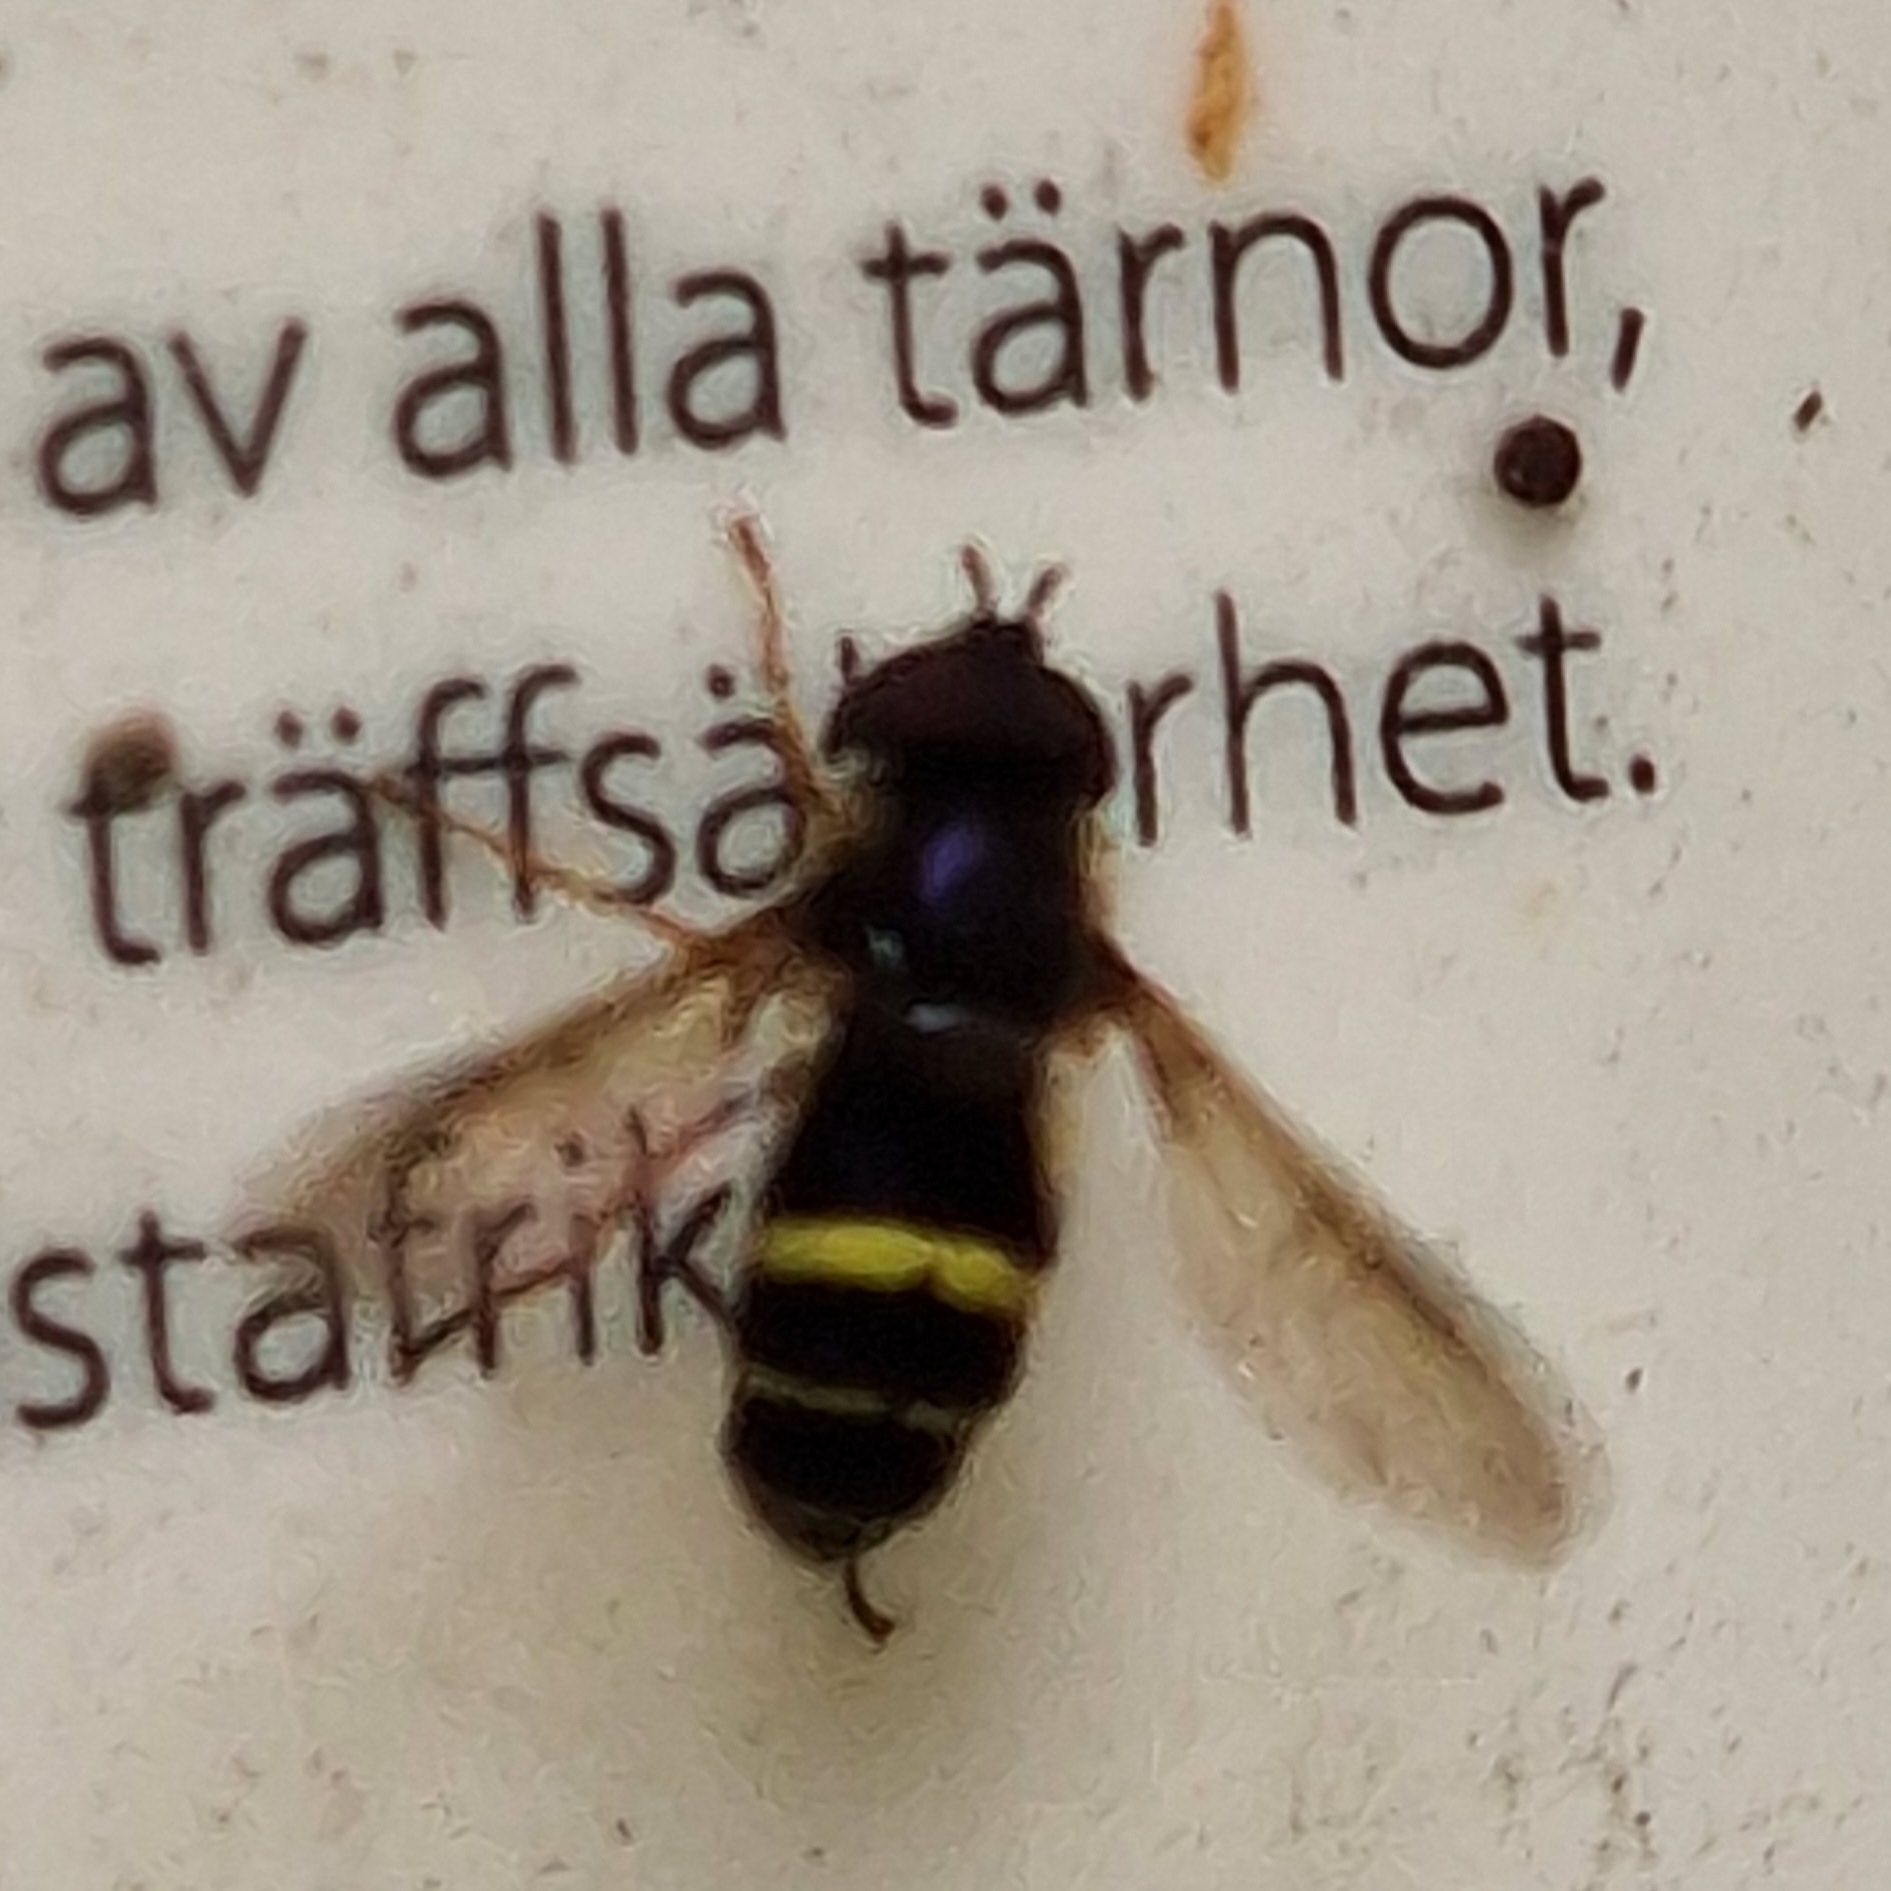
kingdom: Animalia
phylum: Arthropoda
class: Insecta
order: Diptera
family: Syrphidae
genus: Dasysyrphus
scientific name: Dasysyrphus tricinctus
